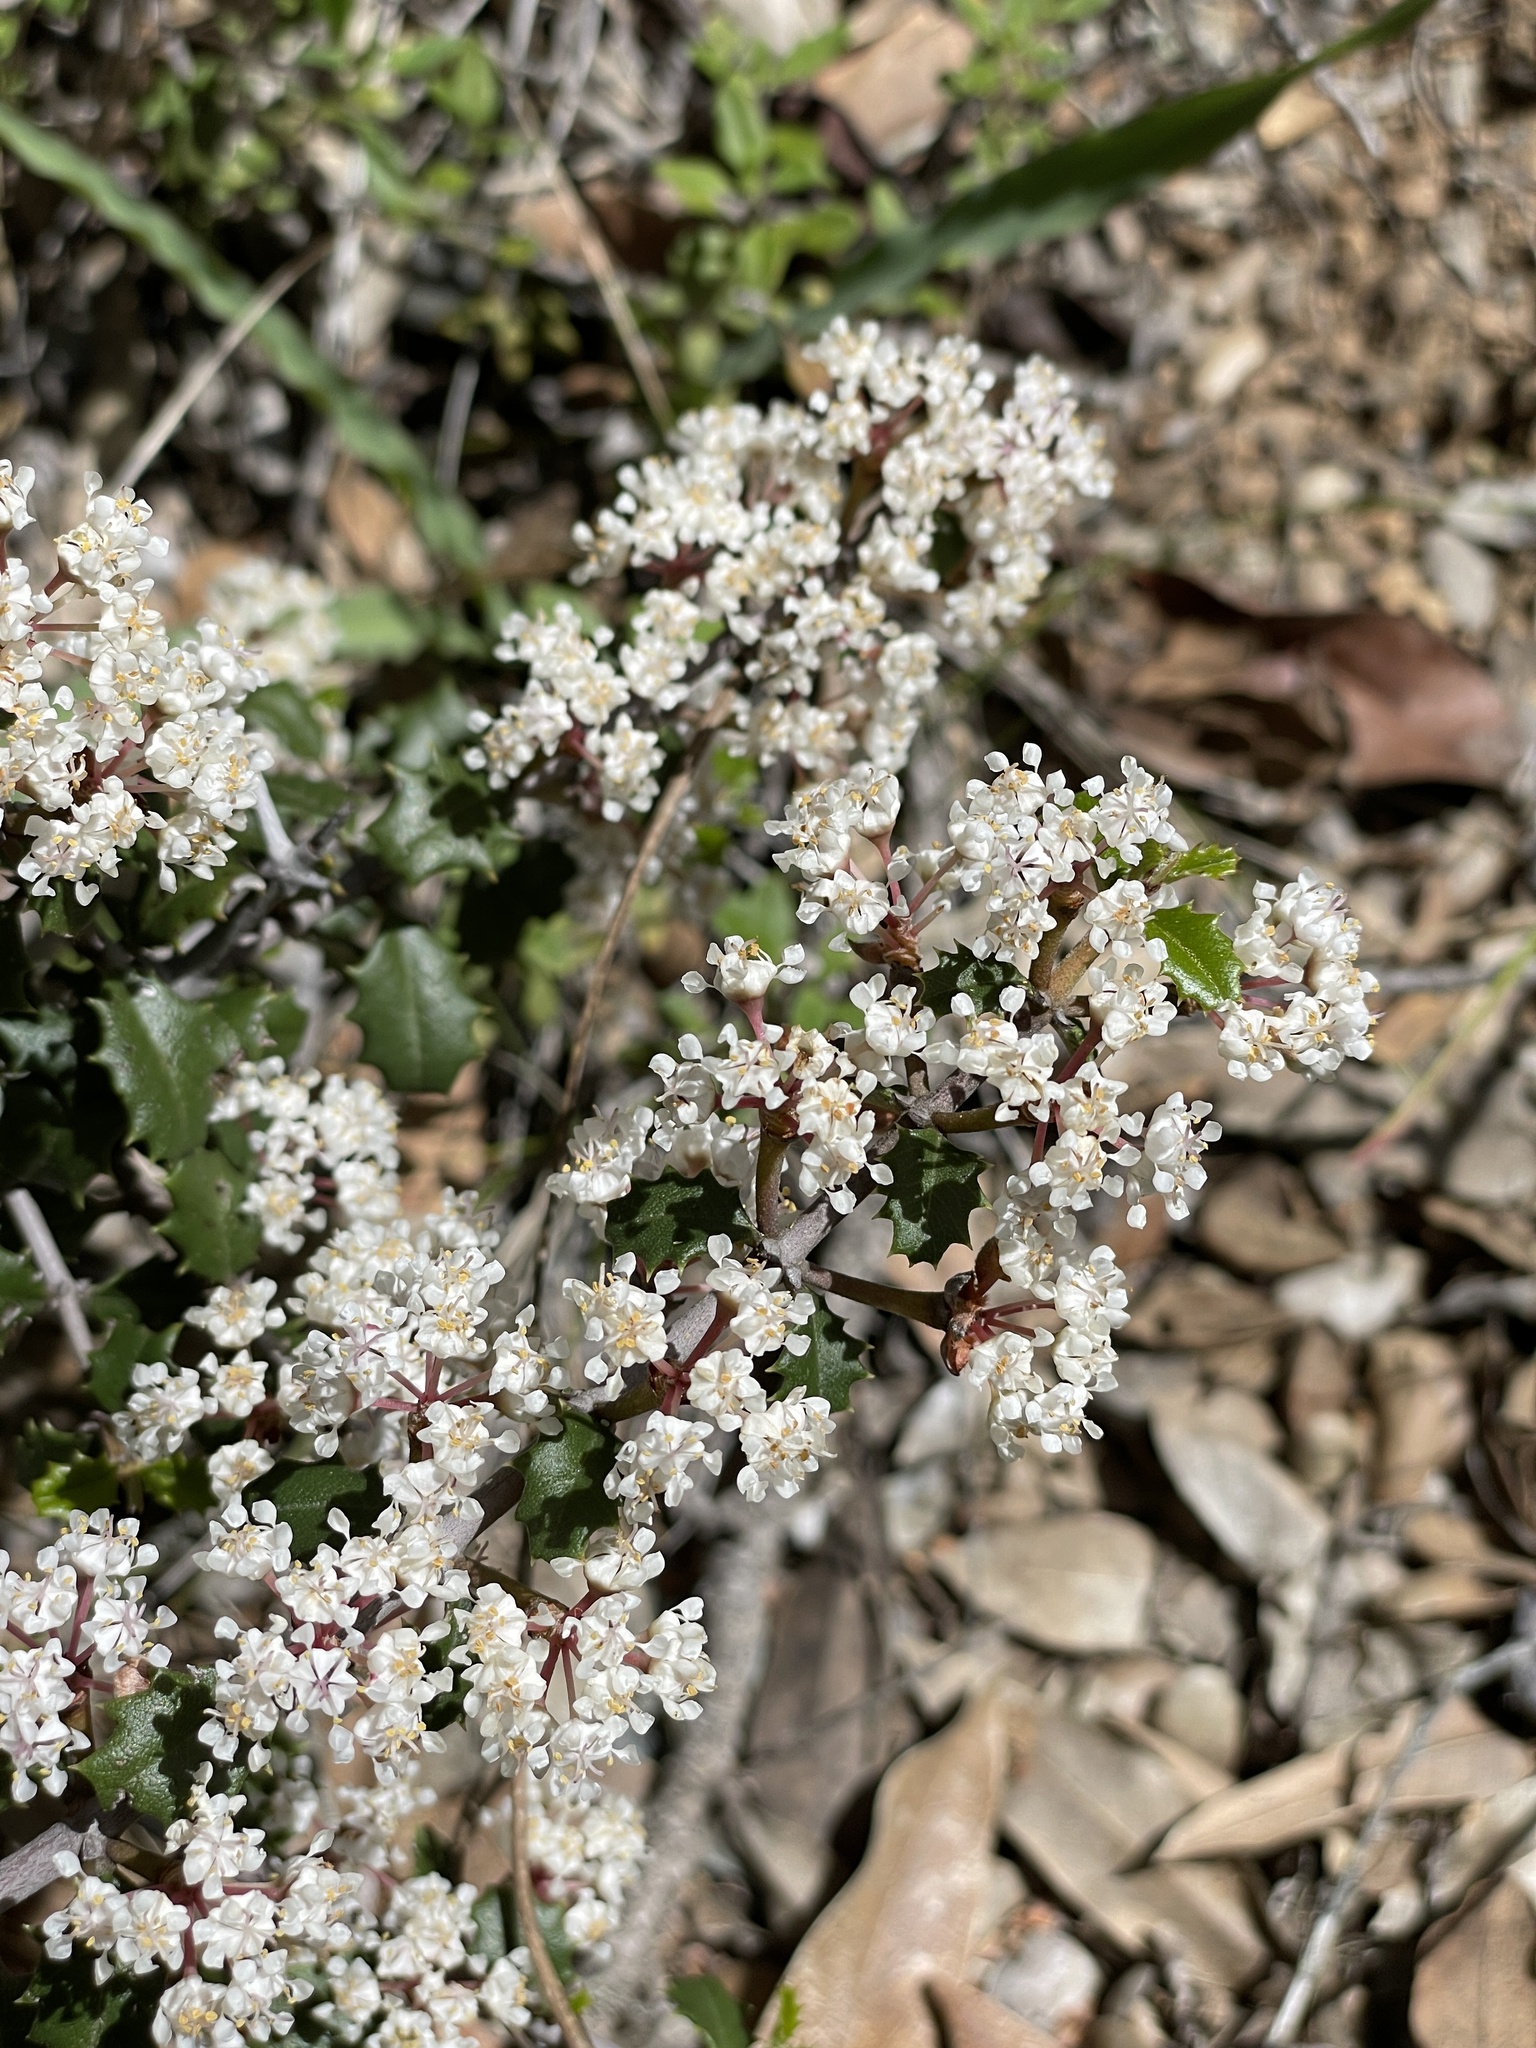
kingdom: Plantae
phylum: Tracheophyta
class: Magnoliopsida
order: Rosales
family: Rhamnaceae
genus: Ceanothus
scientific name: Ceanothus jepsonii
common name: Muskbrush
